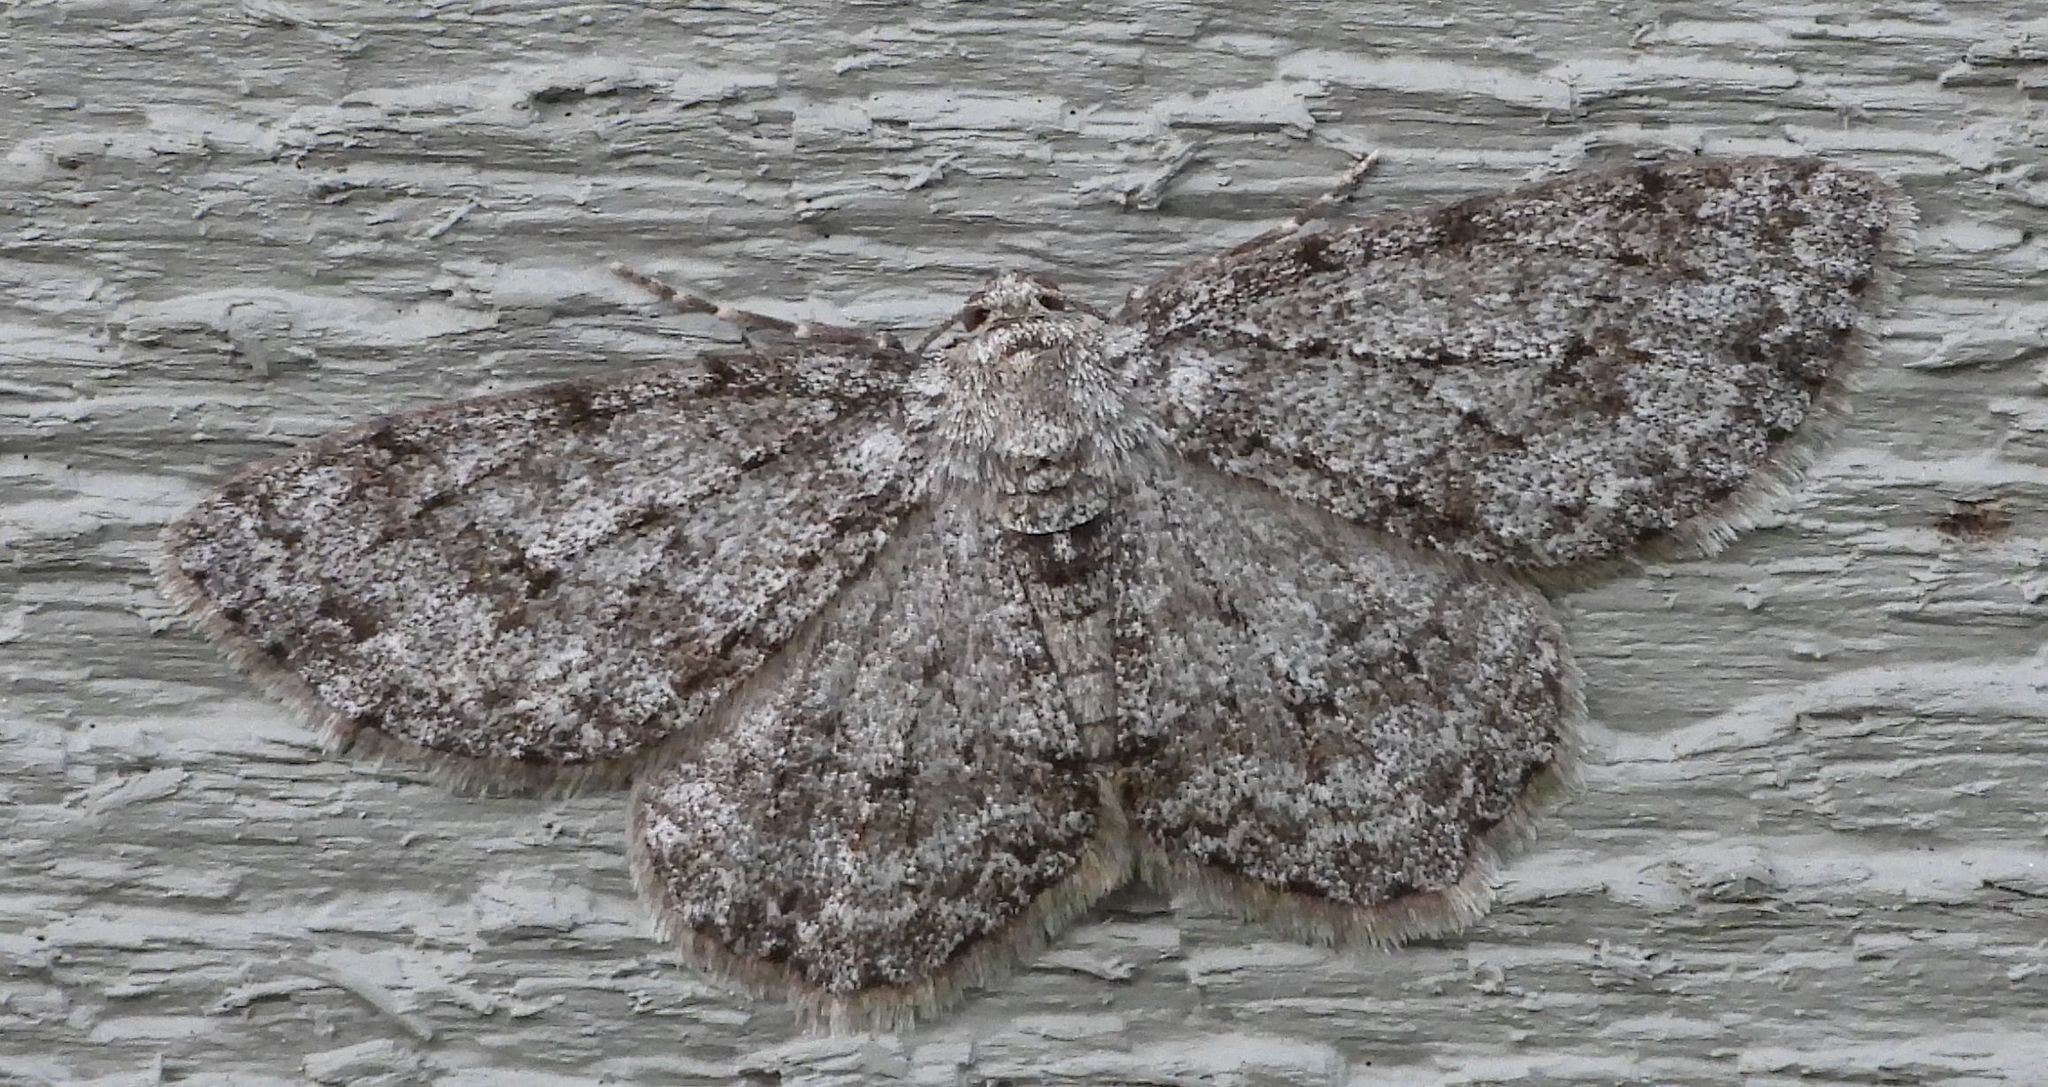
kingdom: Animalia
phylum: Arthropoda
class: Insecta
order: Lepidoptera
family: Geometridae
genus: Ectropis
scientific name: Ectropis crepuscularia
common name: Engrailed
